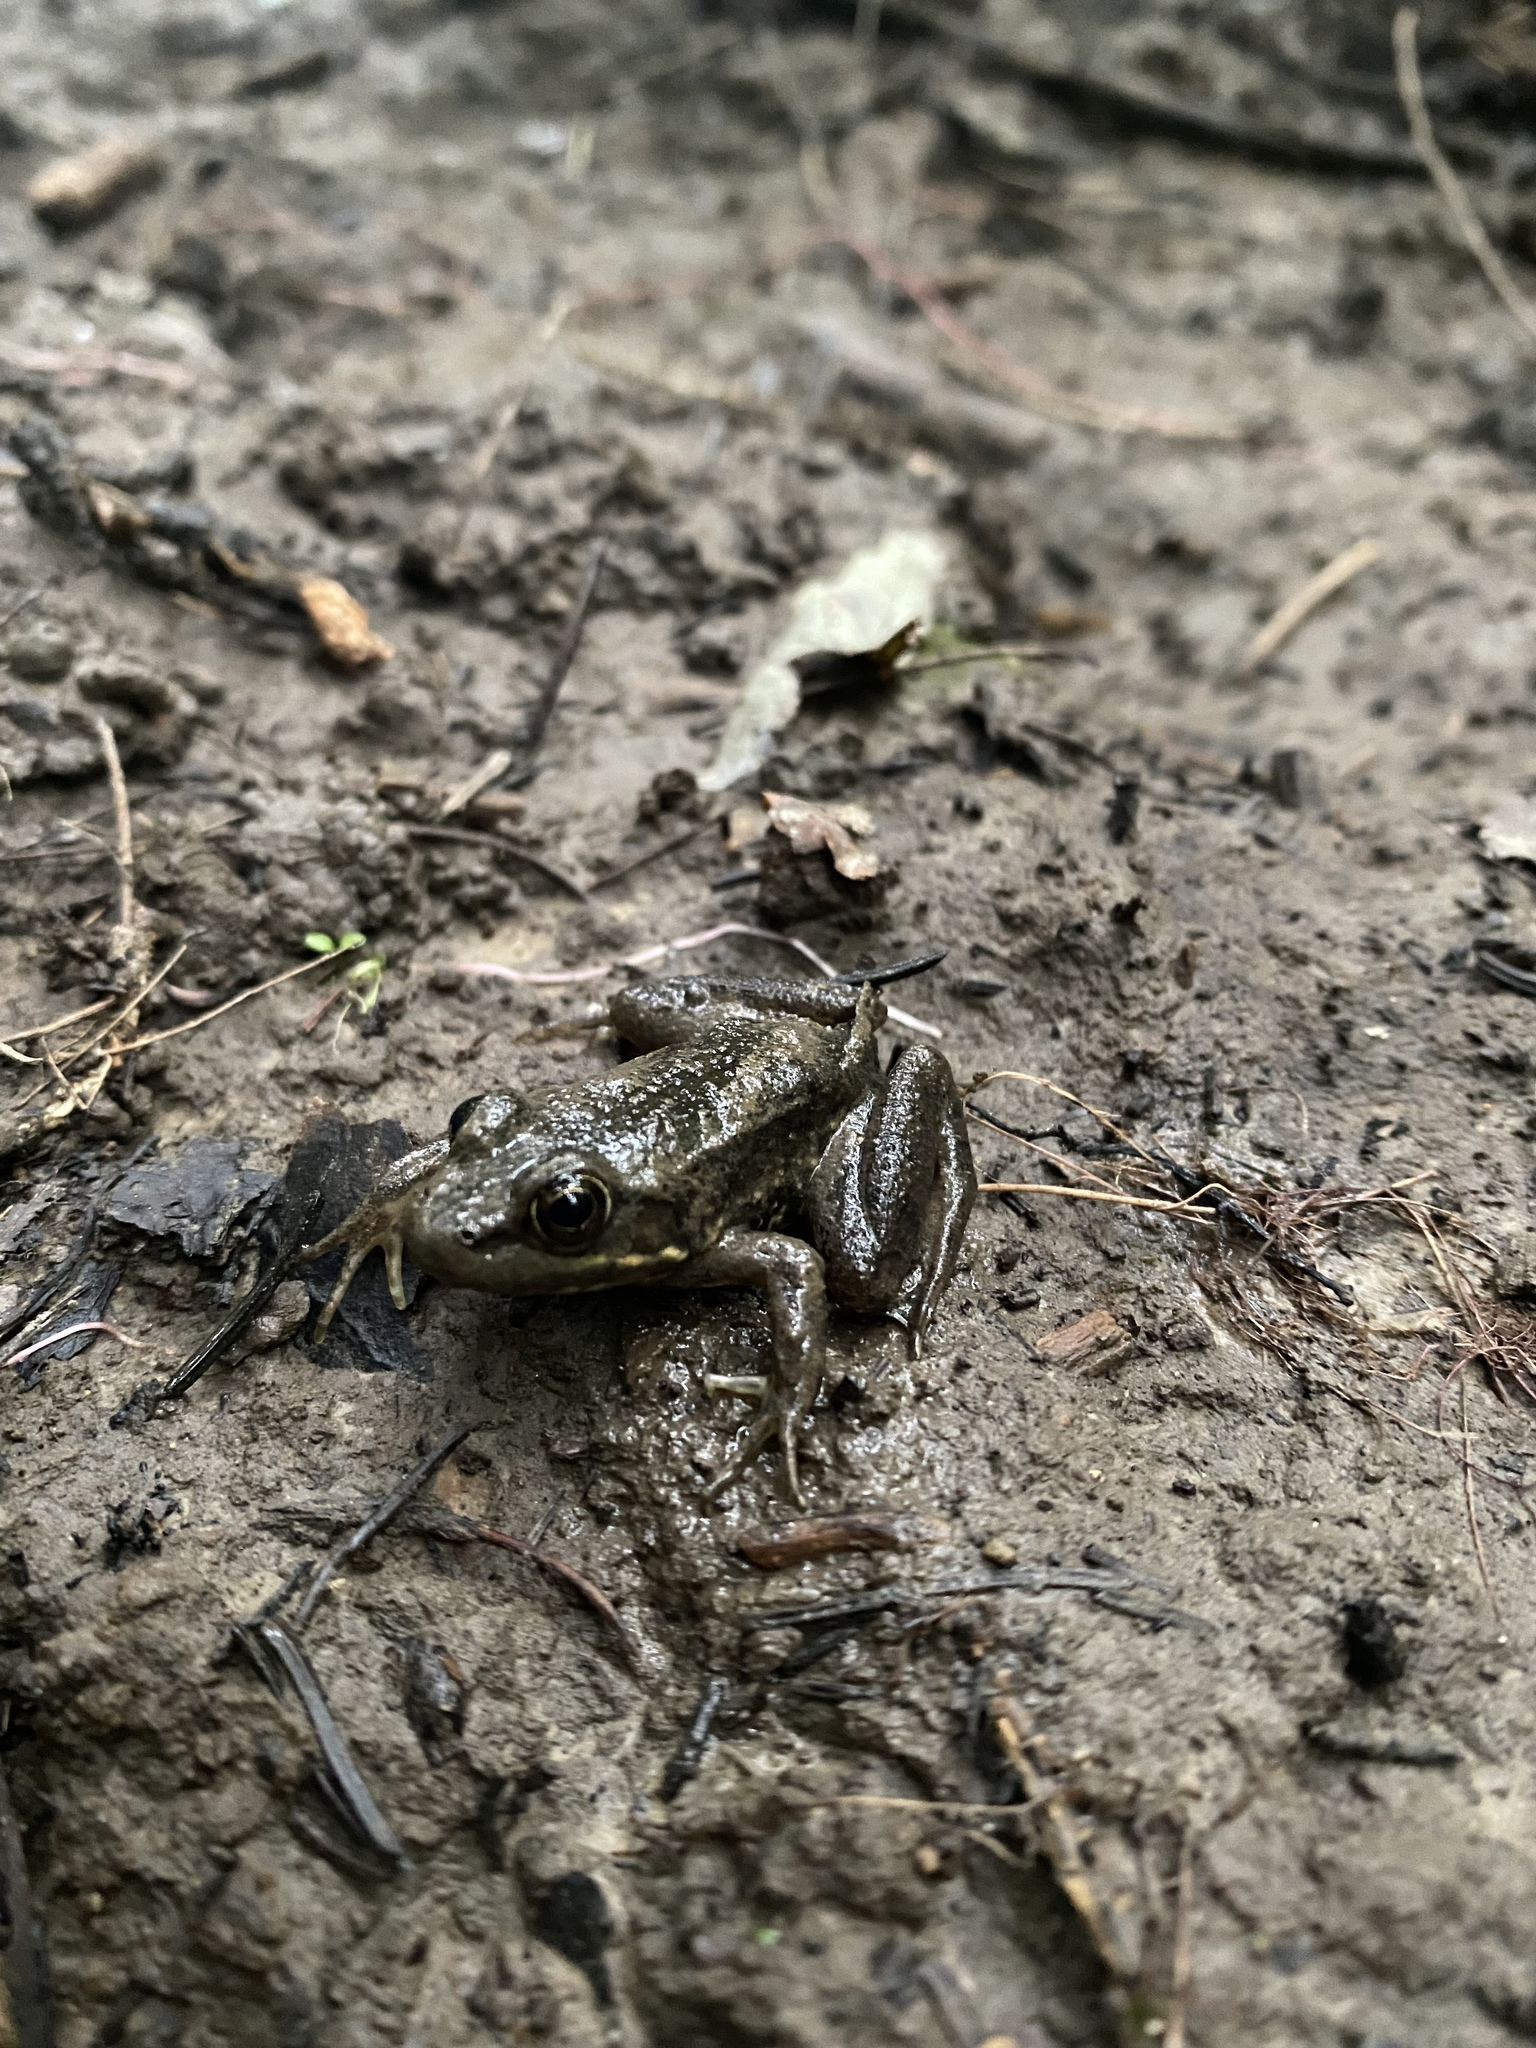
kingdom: Animalia
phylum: Chordata
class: Amphibia
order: Anura
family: Ranidae
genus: Lithobates
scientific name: Lithobates clamitans
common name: Green frog
